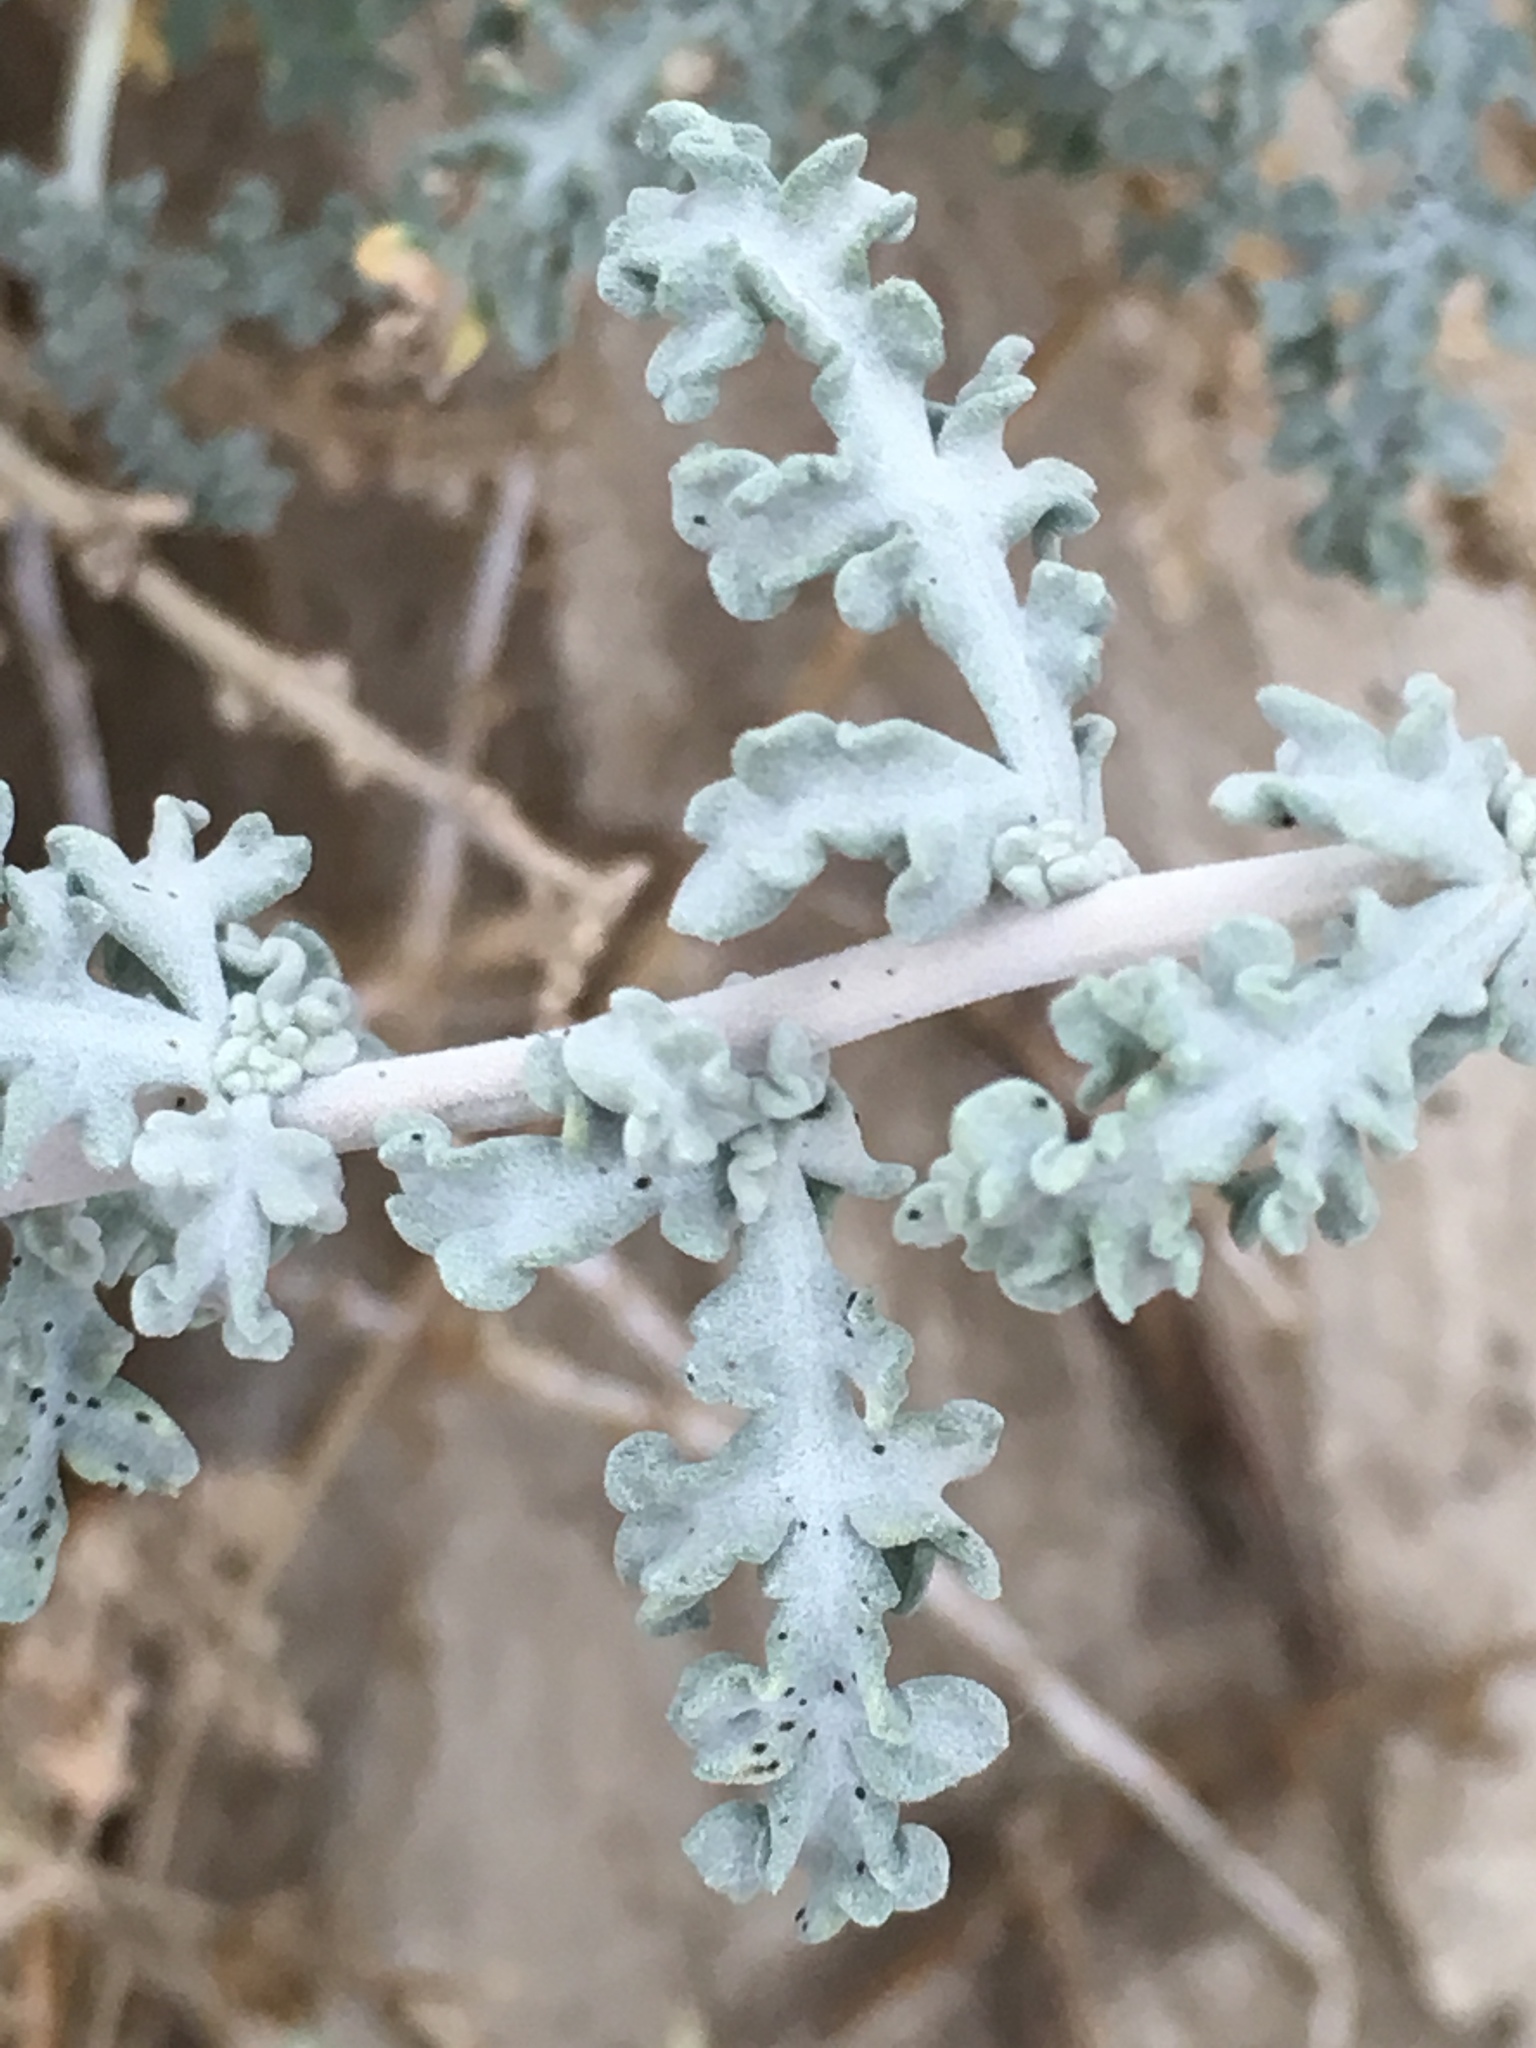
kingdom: Plantae
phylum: Tracheophyta
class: Magnoliopsida
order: Asterales
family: Asteraceae
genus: Ambrosia
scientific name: Ambrosia dumosa
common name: Bur-sage
